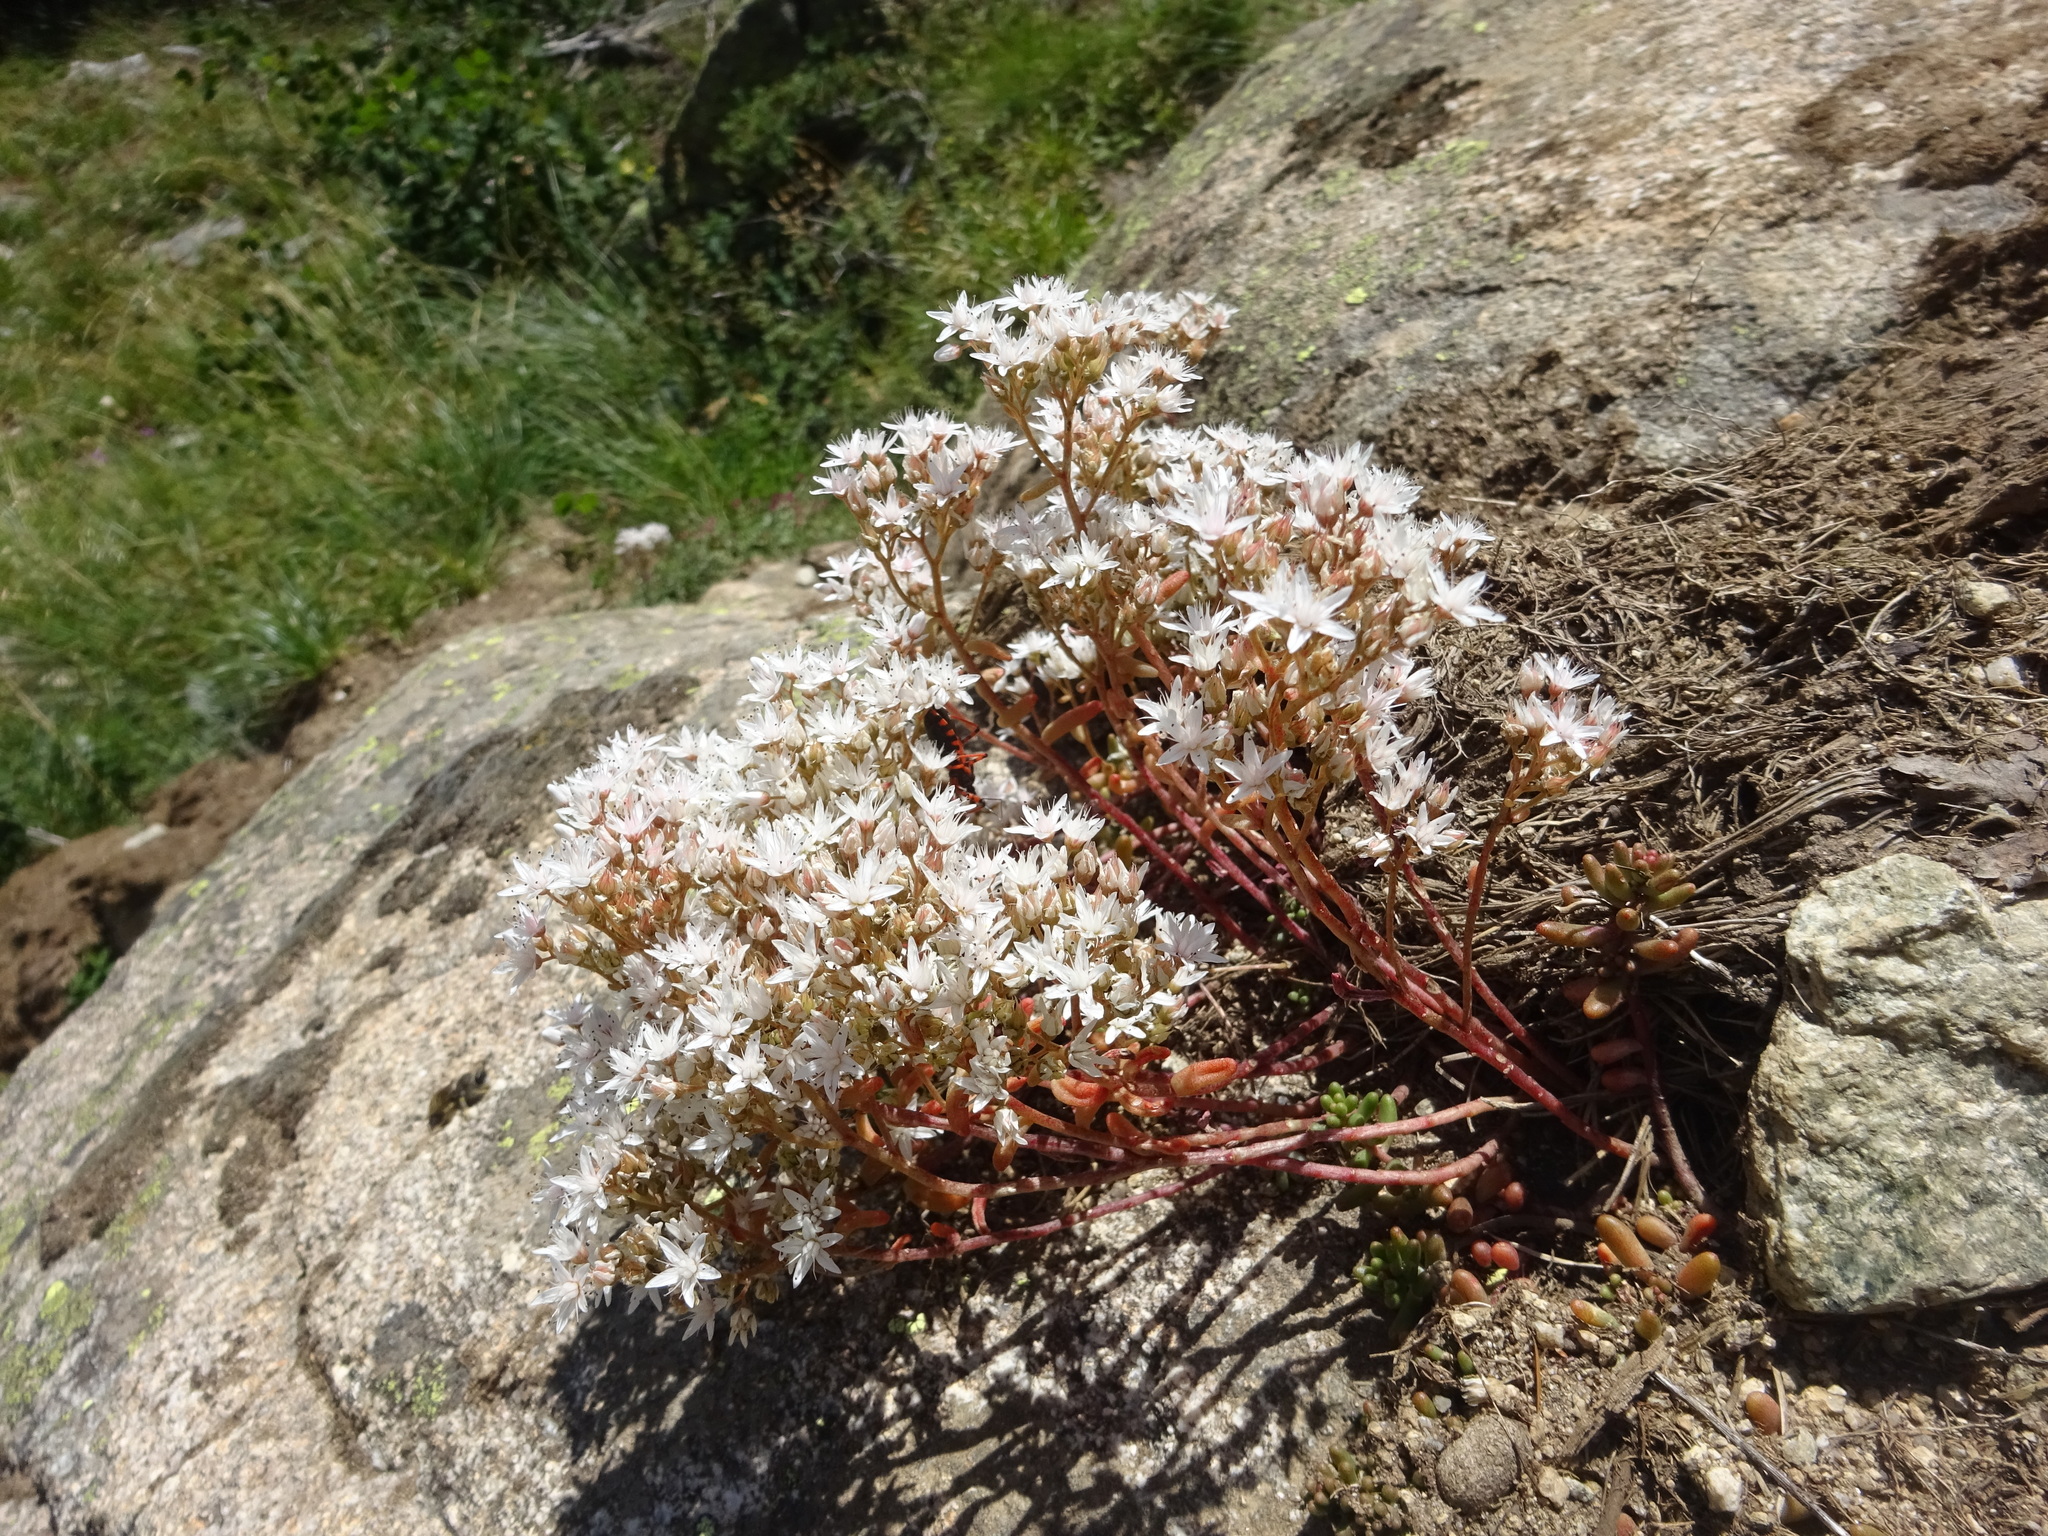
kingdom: Plantae
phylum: Tracheophyta
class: Magnoliopsida
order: Saxifragales
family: Crassulaceae
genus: Sedum
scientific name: Sedum album
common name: White stonecrop
